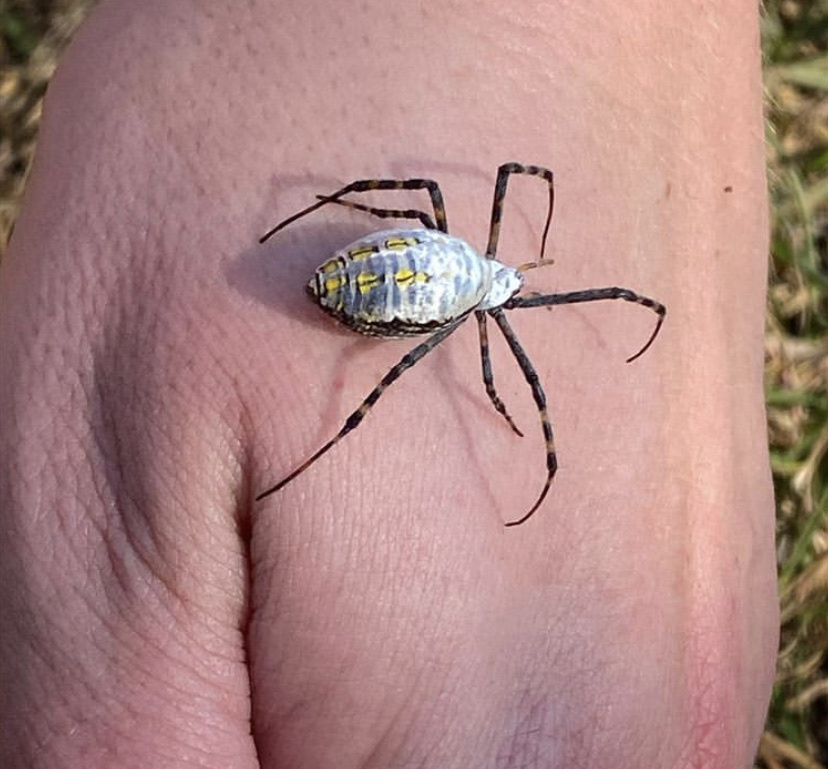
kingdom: Animalia
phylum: Arthropoda
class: Arachnida
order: Araneae
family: Araneidae
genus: Argiope
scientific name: Argiope trifasciata
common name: Banded garden spider
